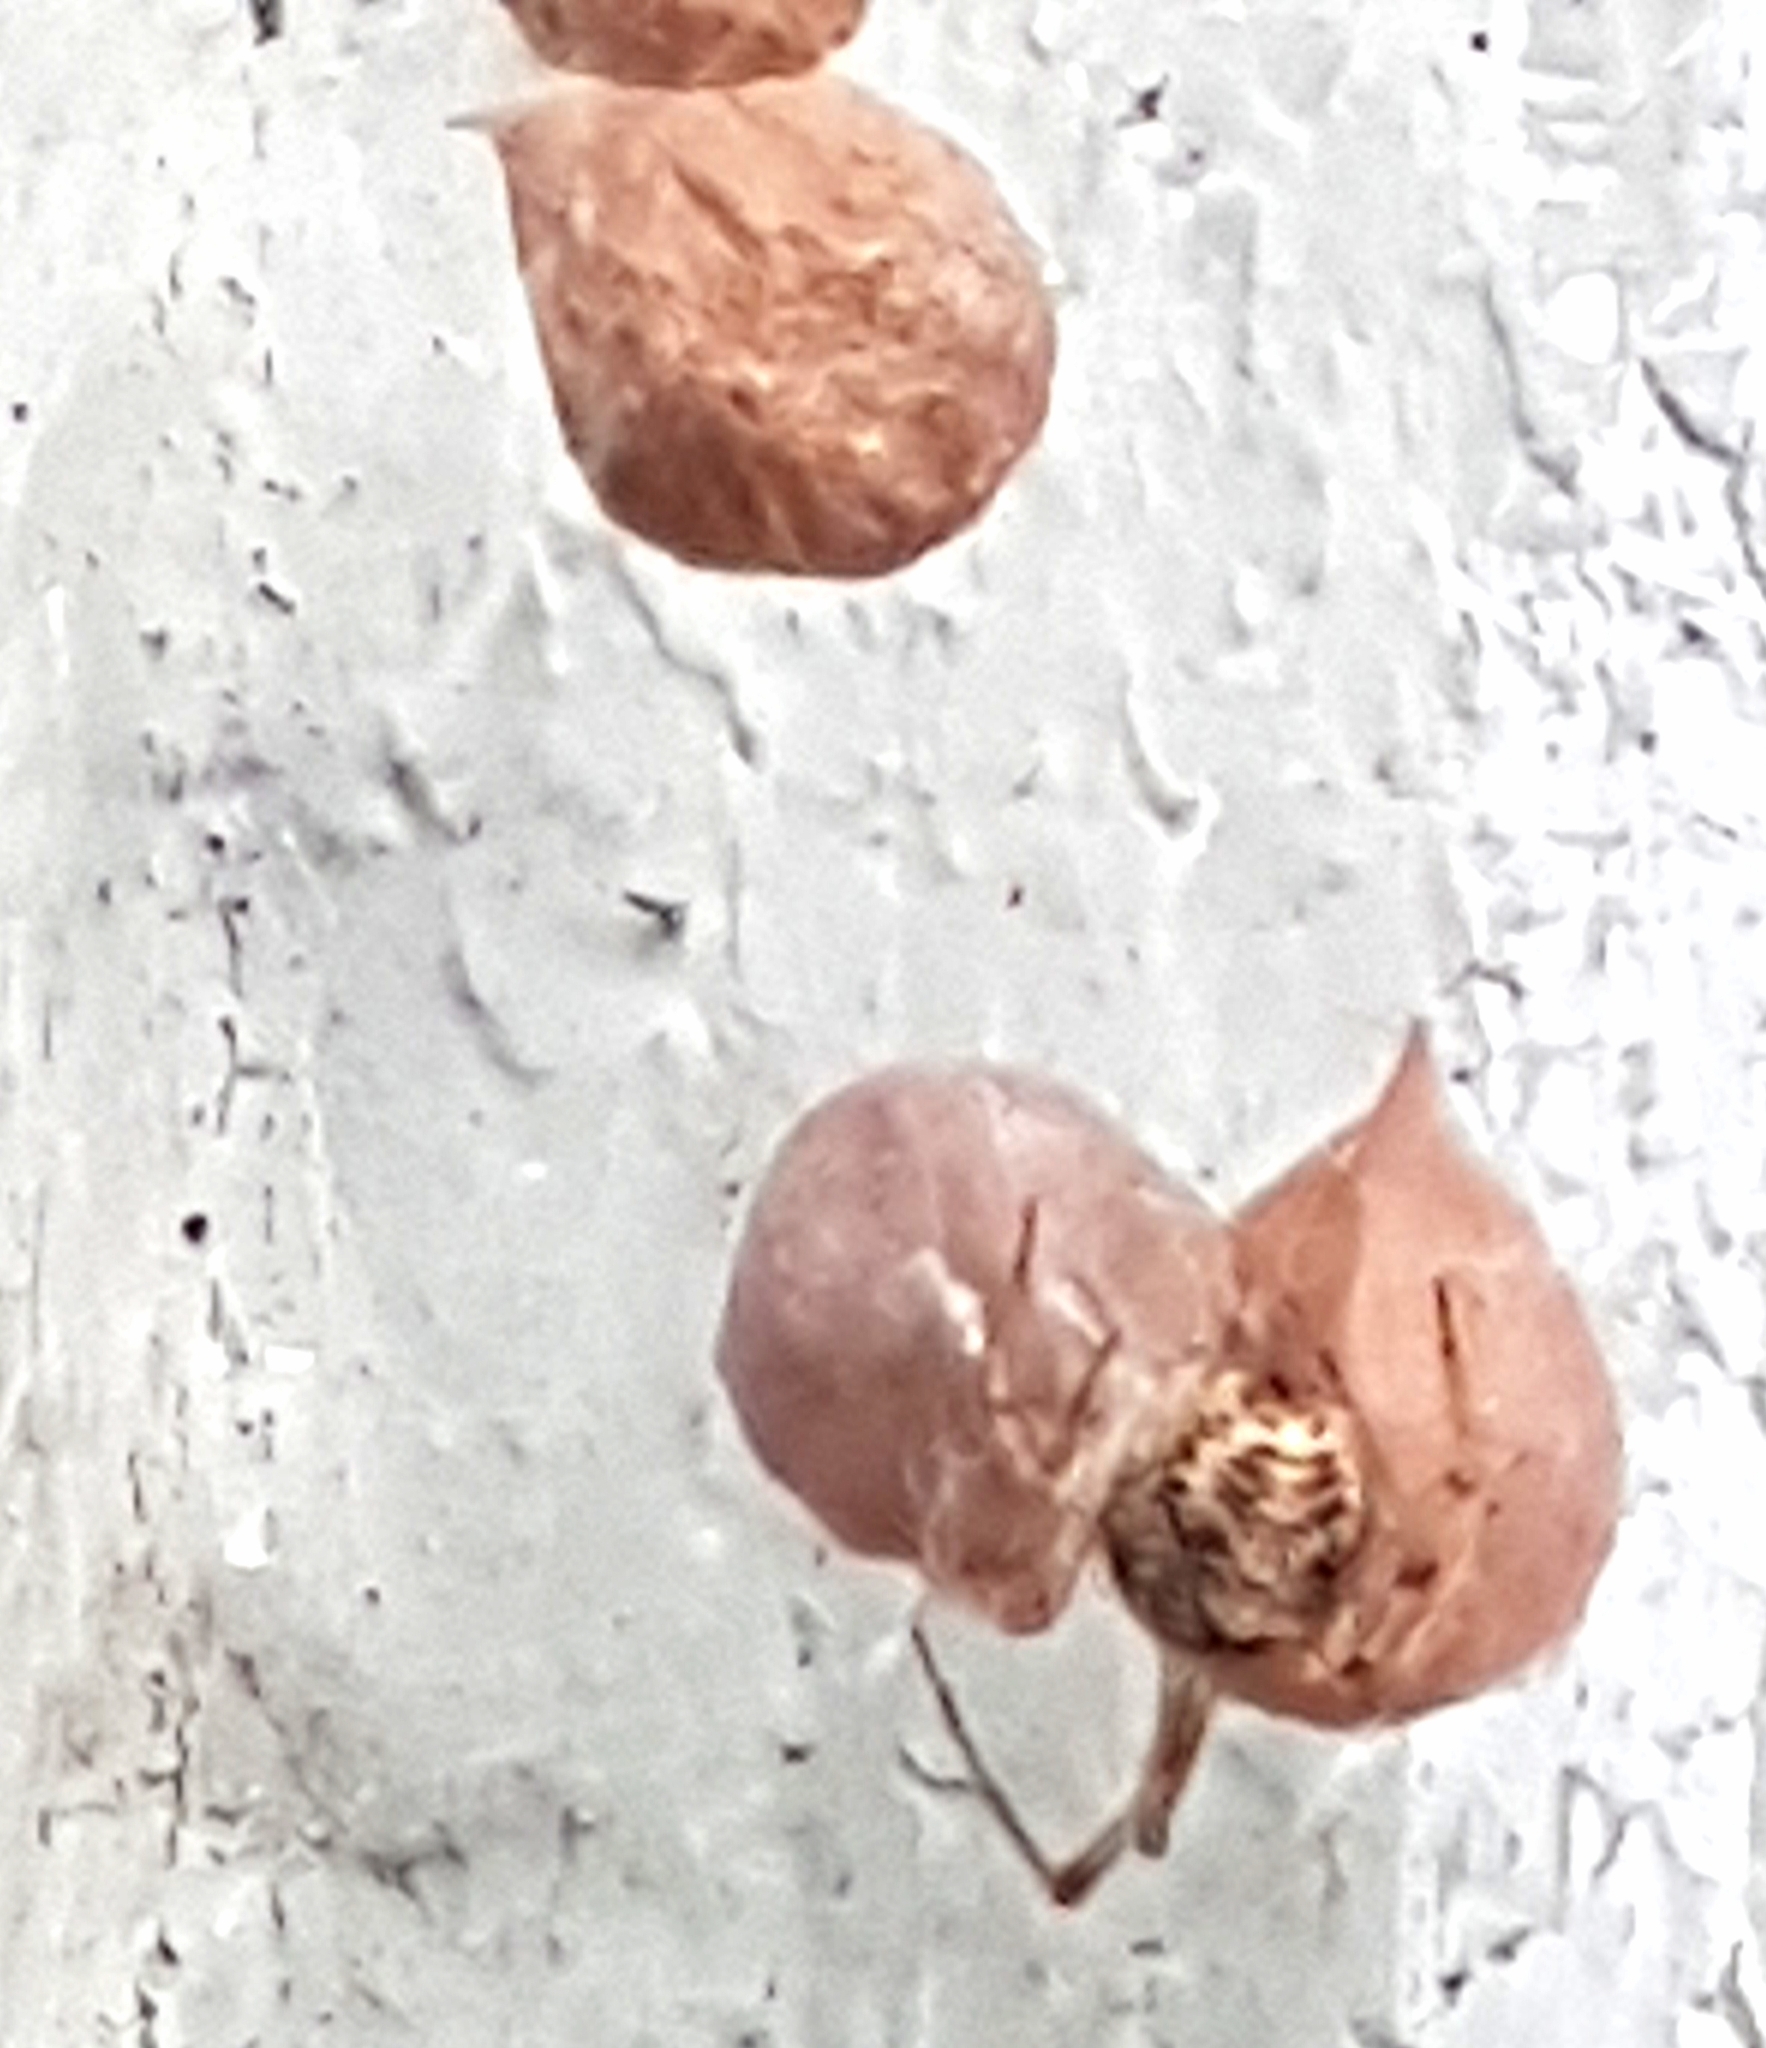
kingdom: Animalia
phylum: Arthropoda
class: Arachnida
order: Araneae
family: Theridiidae
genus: Parasteatoda
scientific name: Parasteatoda tepidariorum
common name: Common house spider
